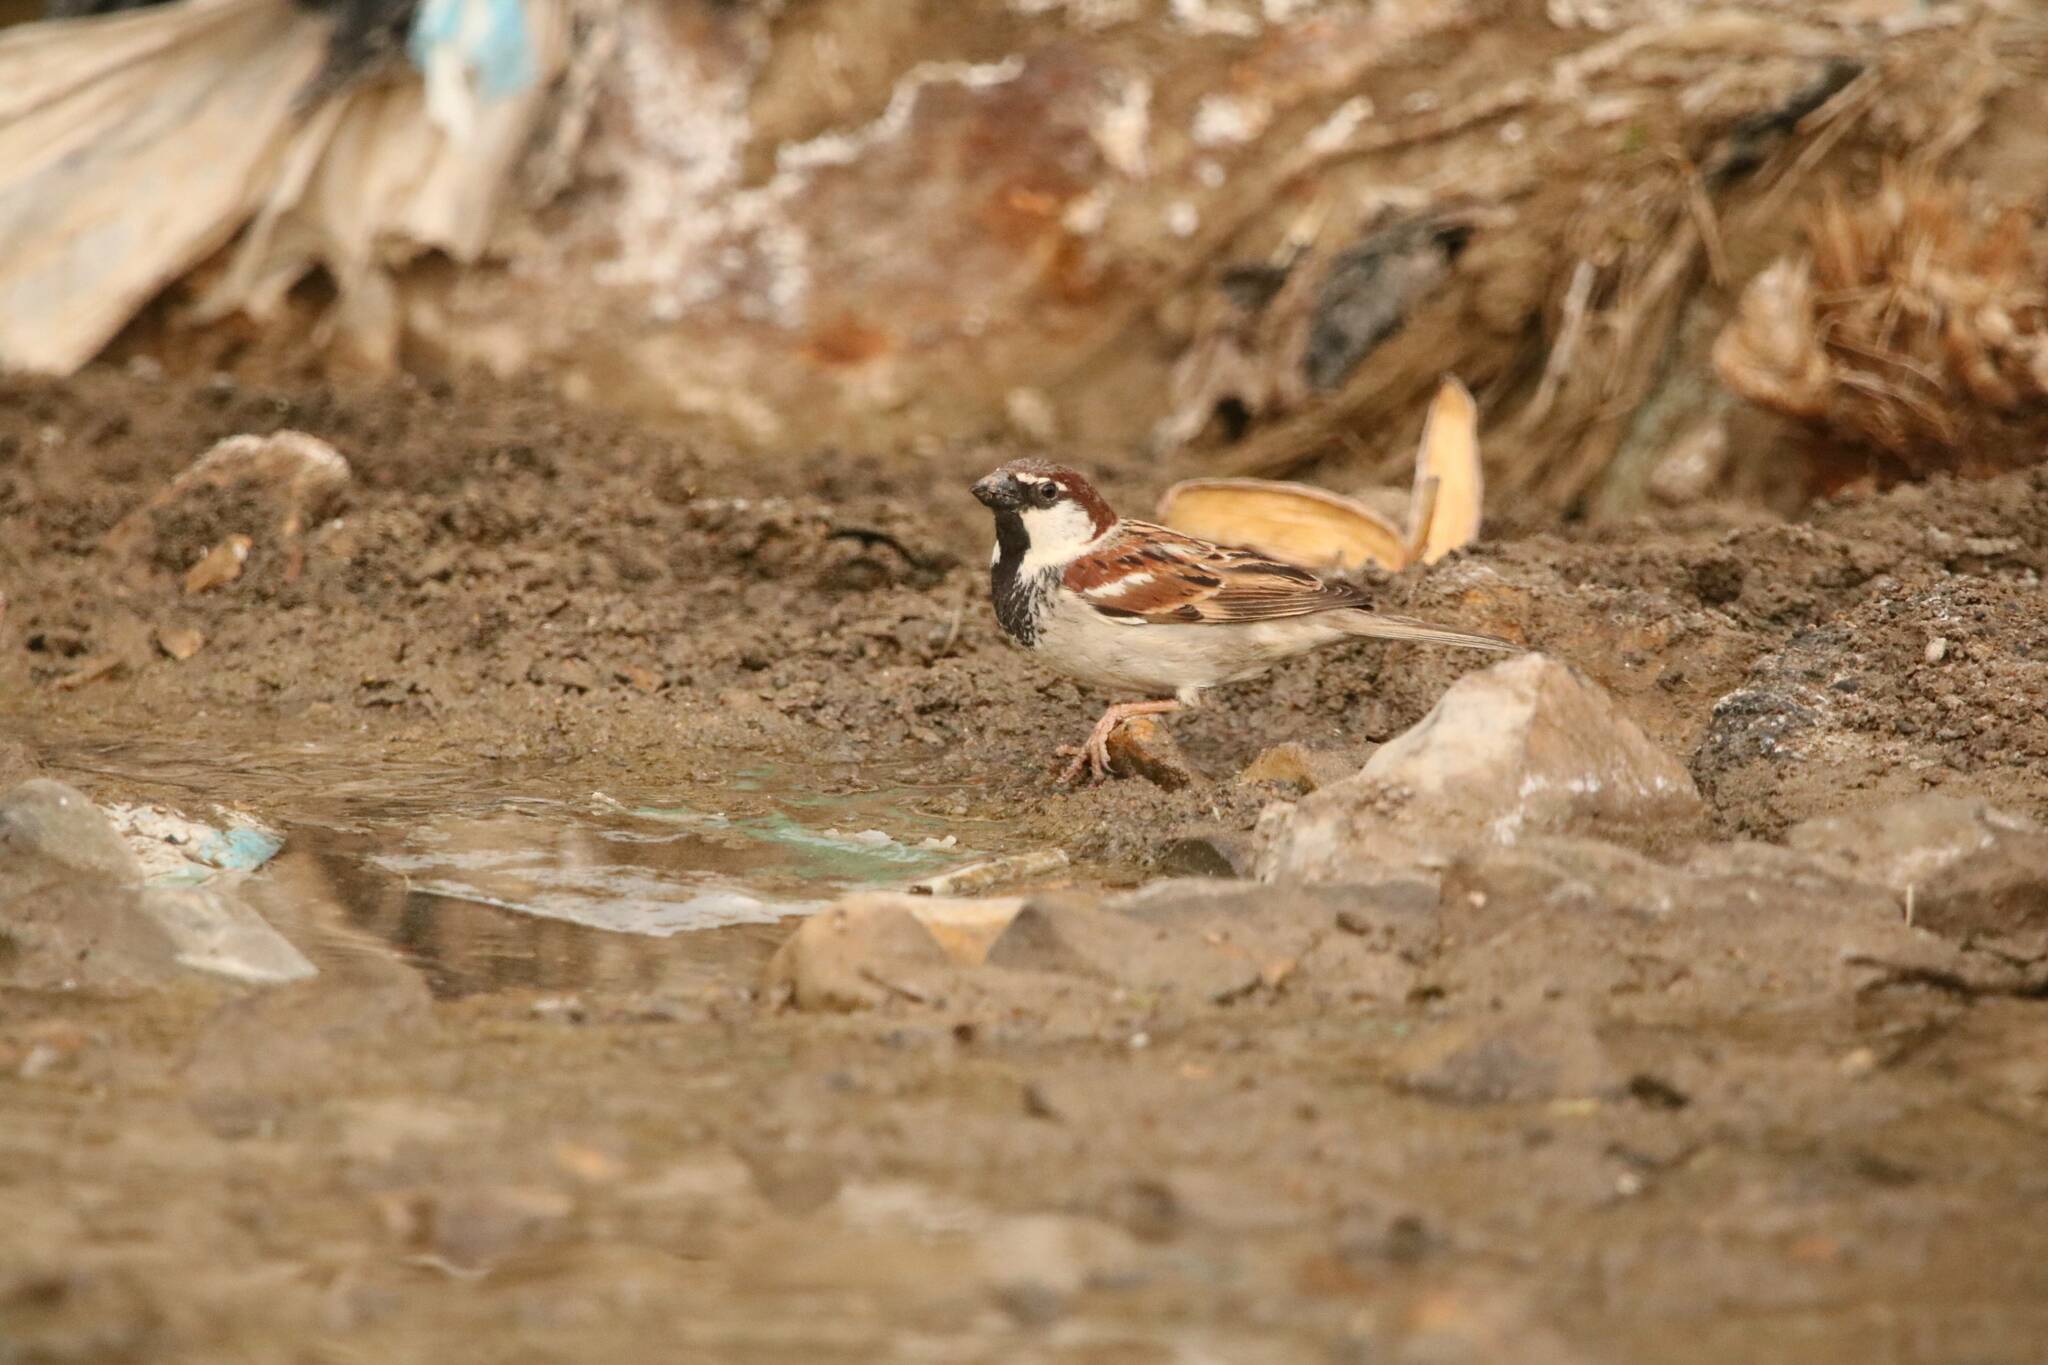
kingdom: Animalia
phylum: Chordata
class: Aves
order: Passeriformes
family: Passeridae
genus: Passer
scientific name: Passer hispaniolensis
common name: Spanish sparrow
